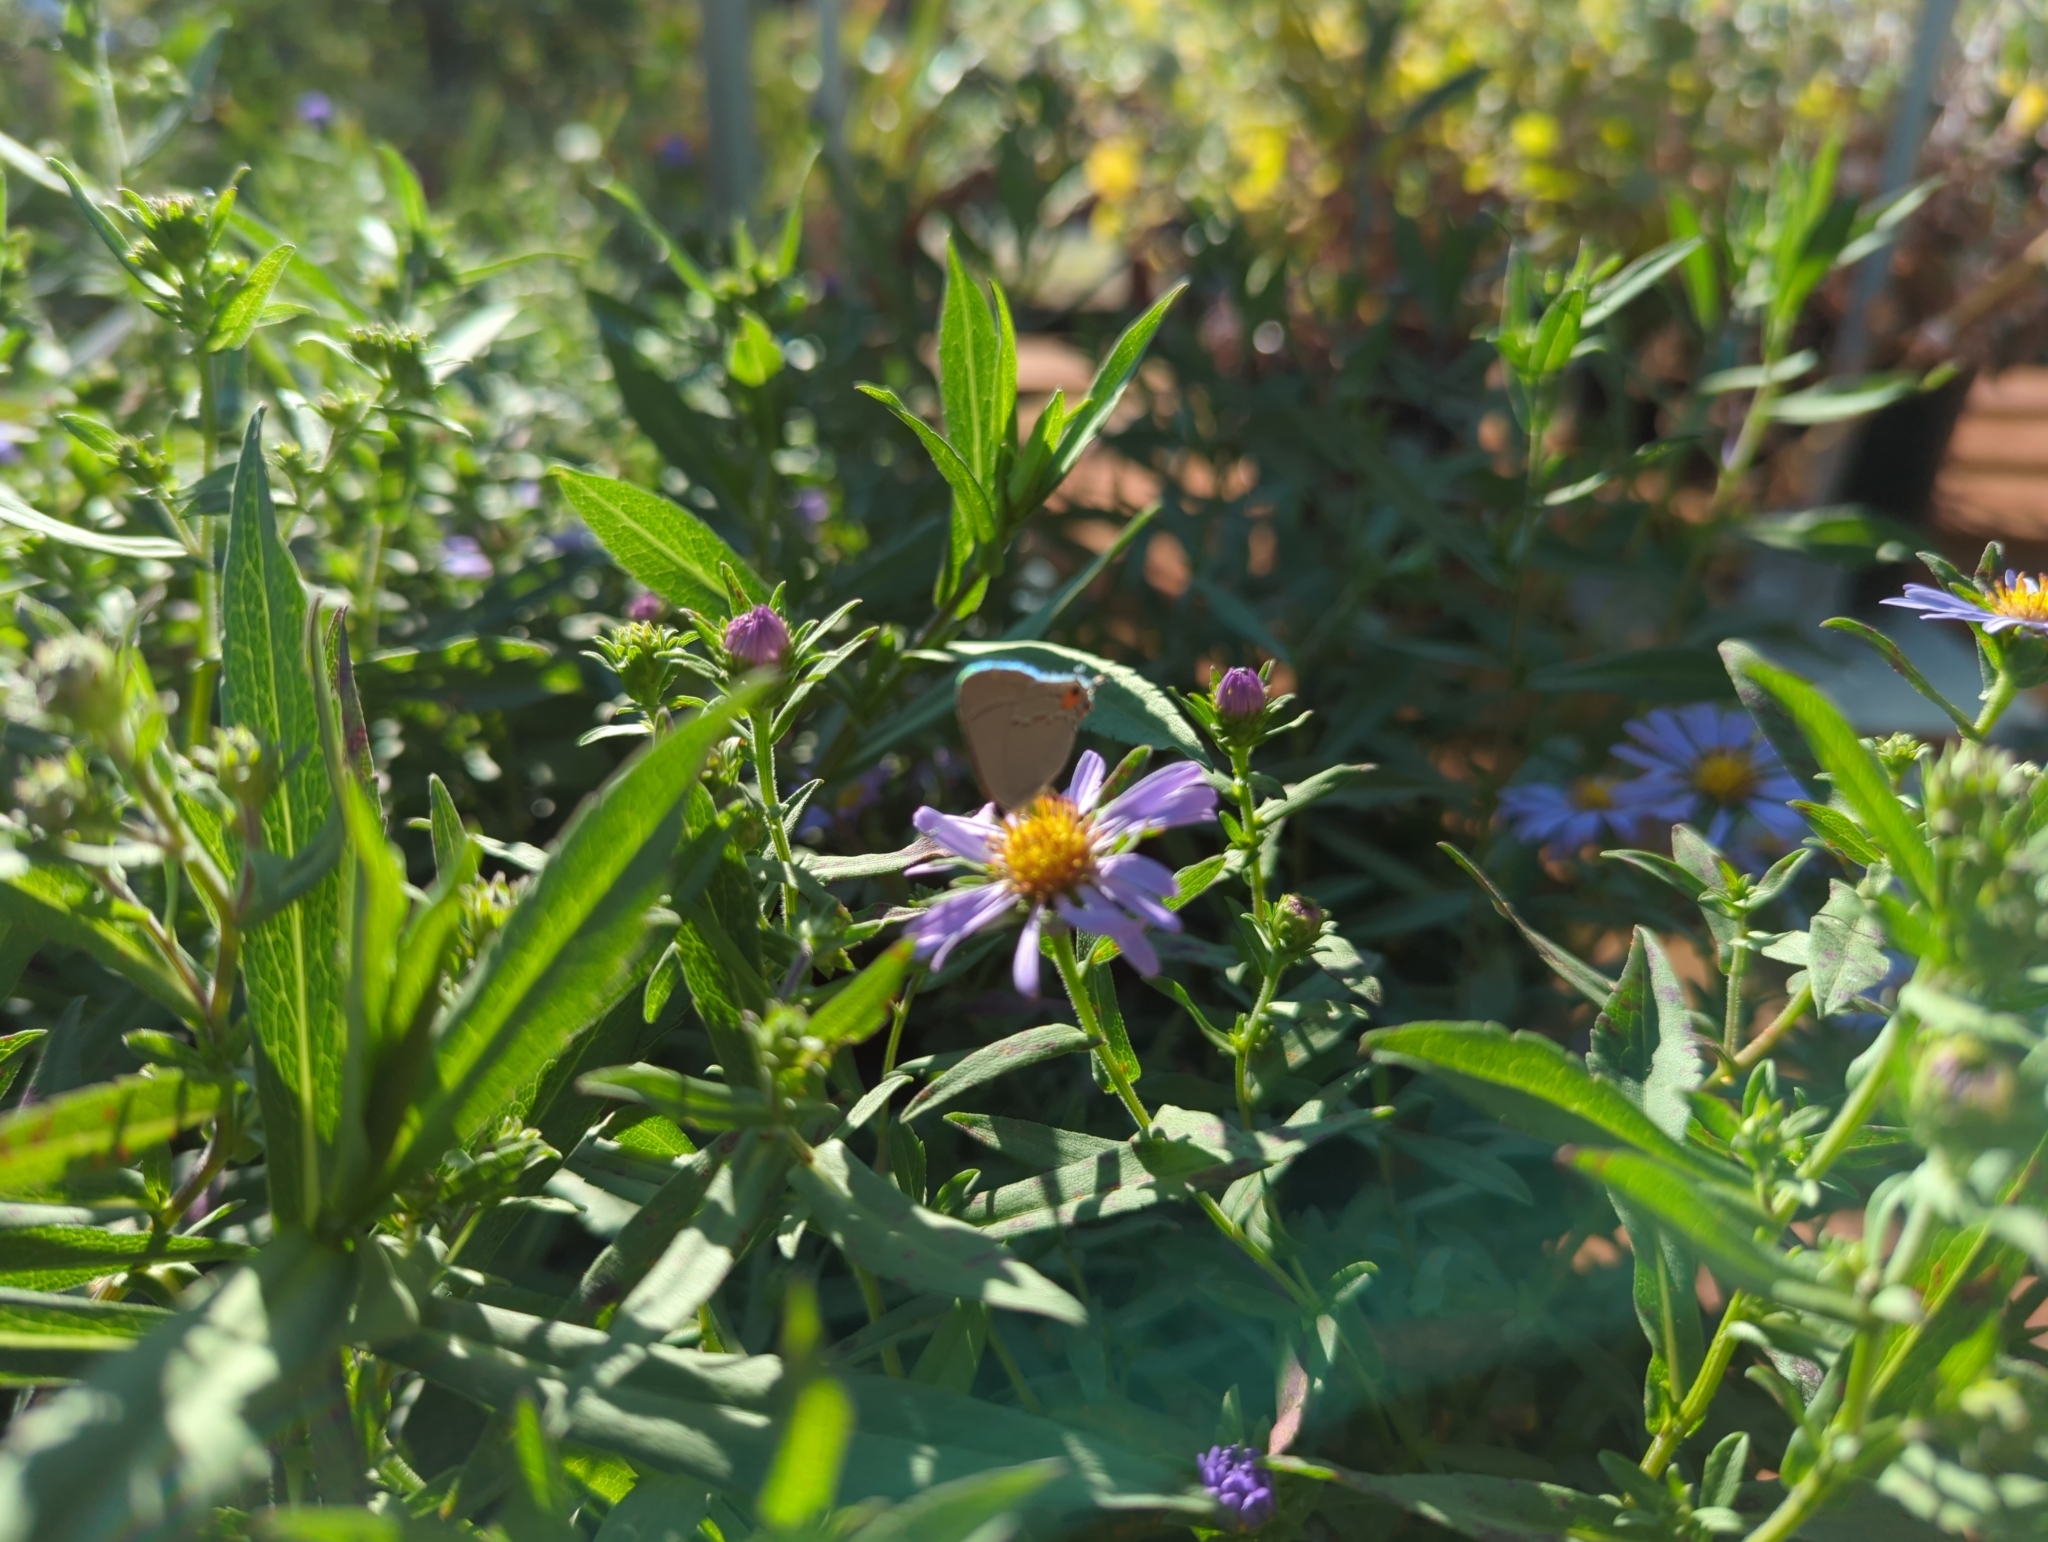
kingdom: Animalia
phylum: Arthropoda
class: Insecta
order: Lepidoptera
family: Lycaenidae
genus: Strymon
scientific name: Strymon melinus
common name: Gray hairstreak
